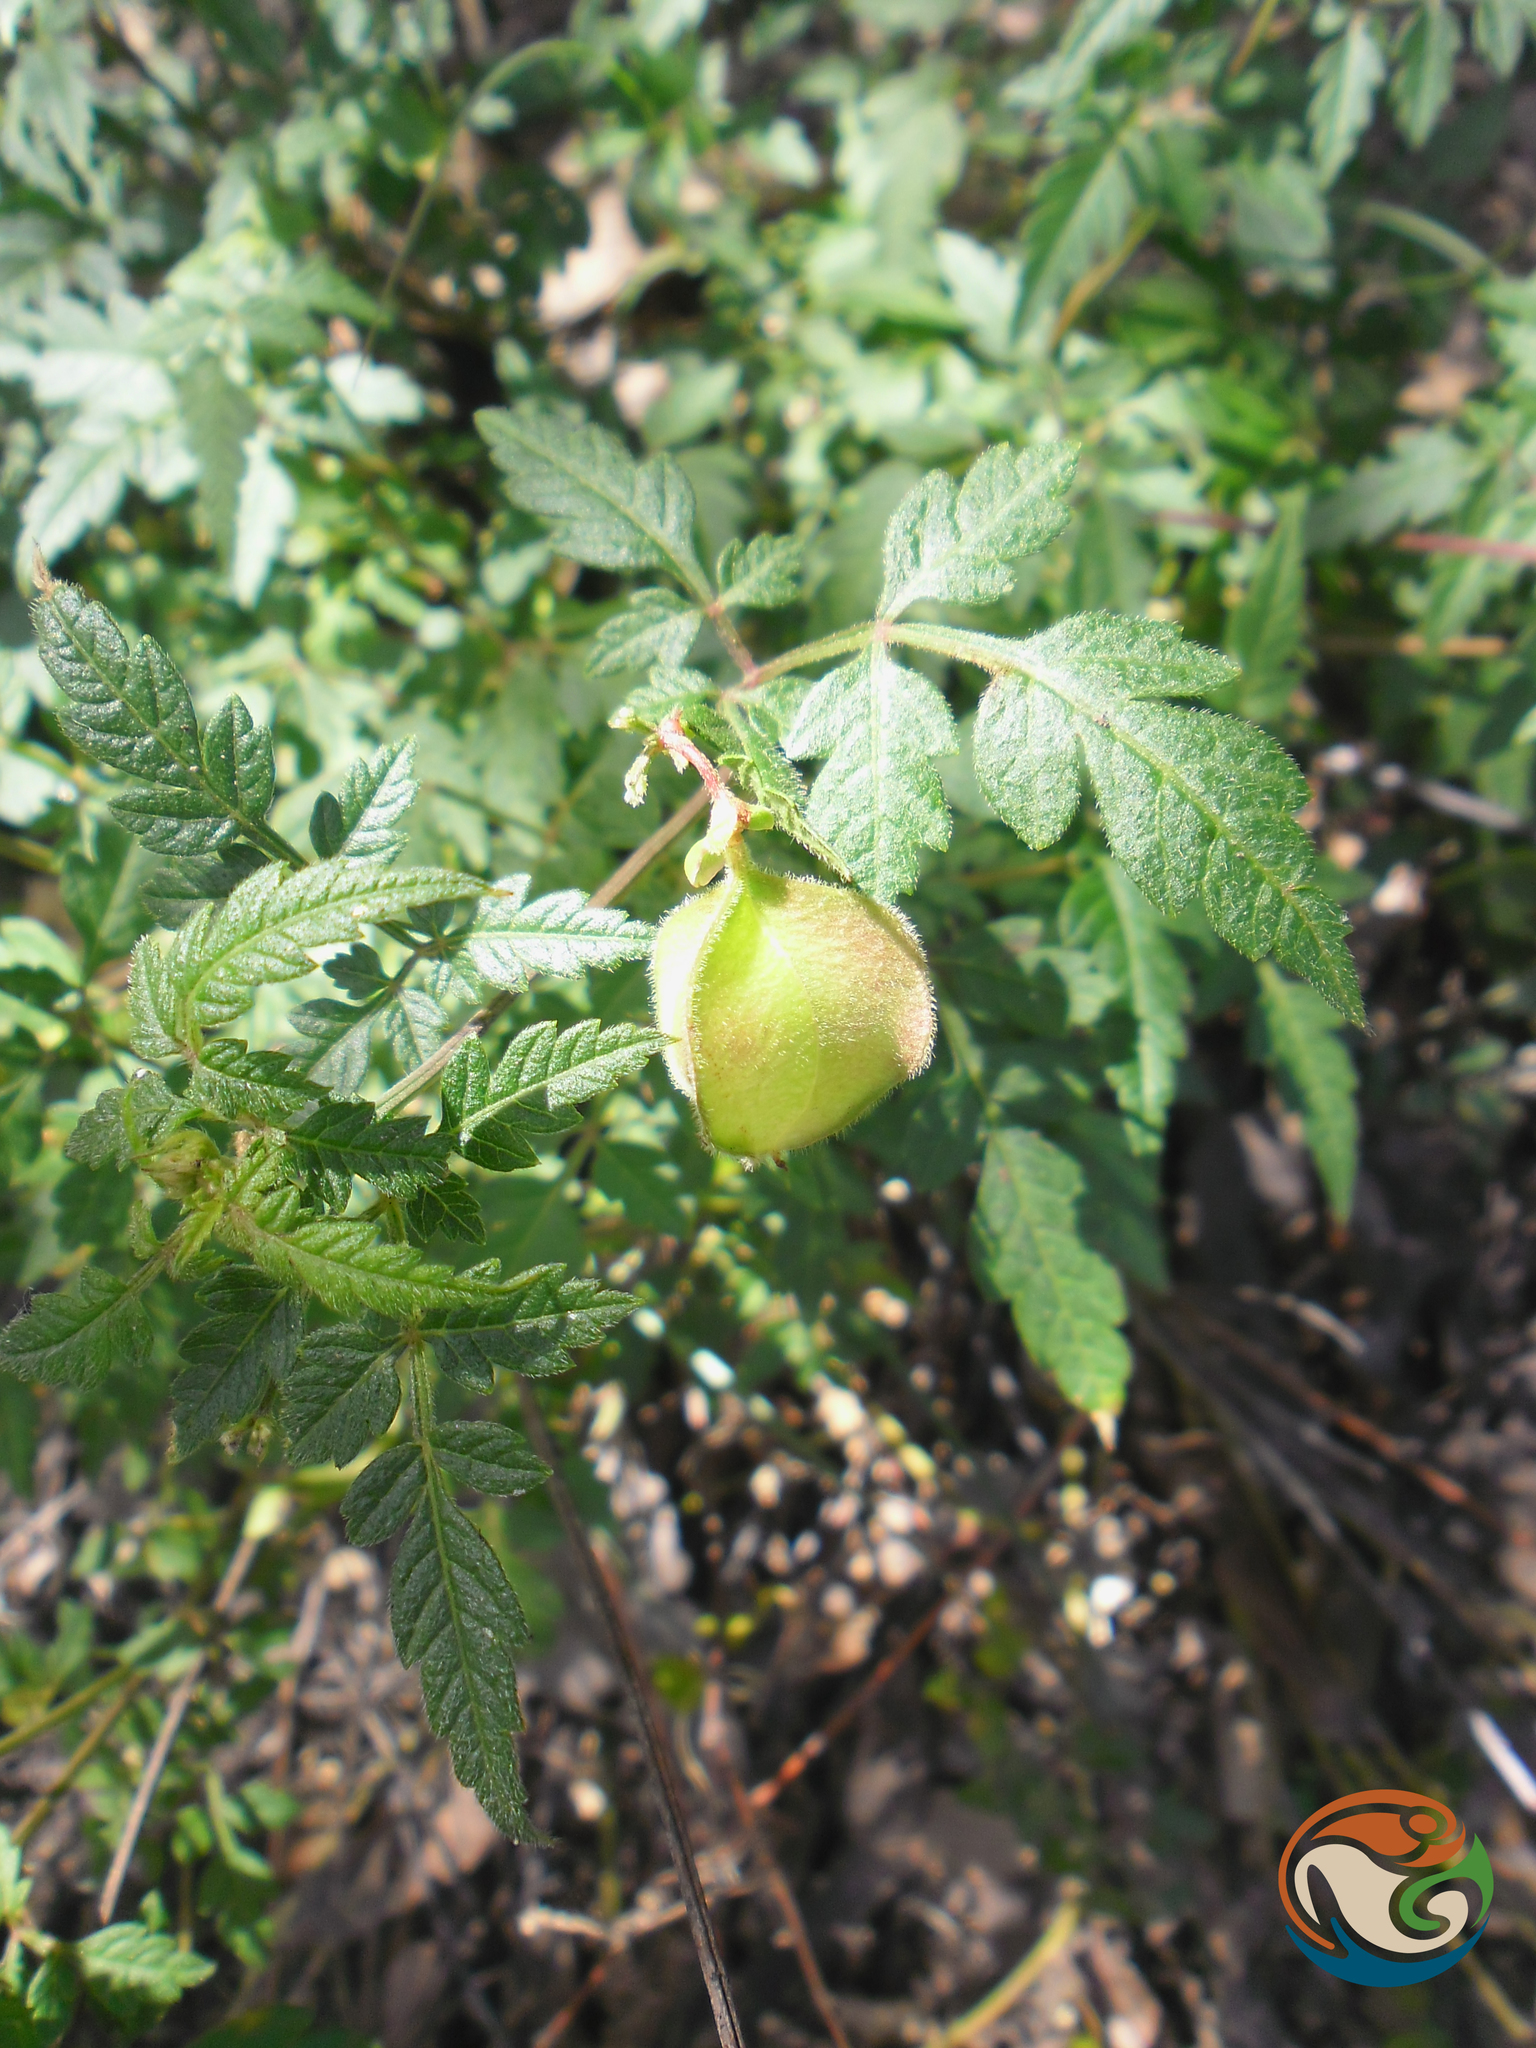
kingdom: Plantae
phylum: Tracheophyta
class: Magnoliopsida
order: Sapindales
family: Sapindaceae
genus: Cardiospermum
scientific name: Cardiospermum halicacabum
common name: Balloon vine
